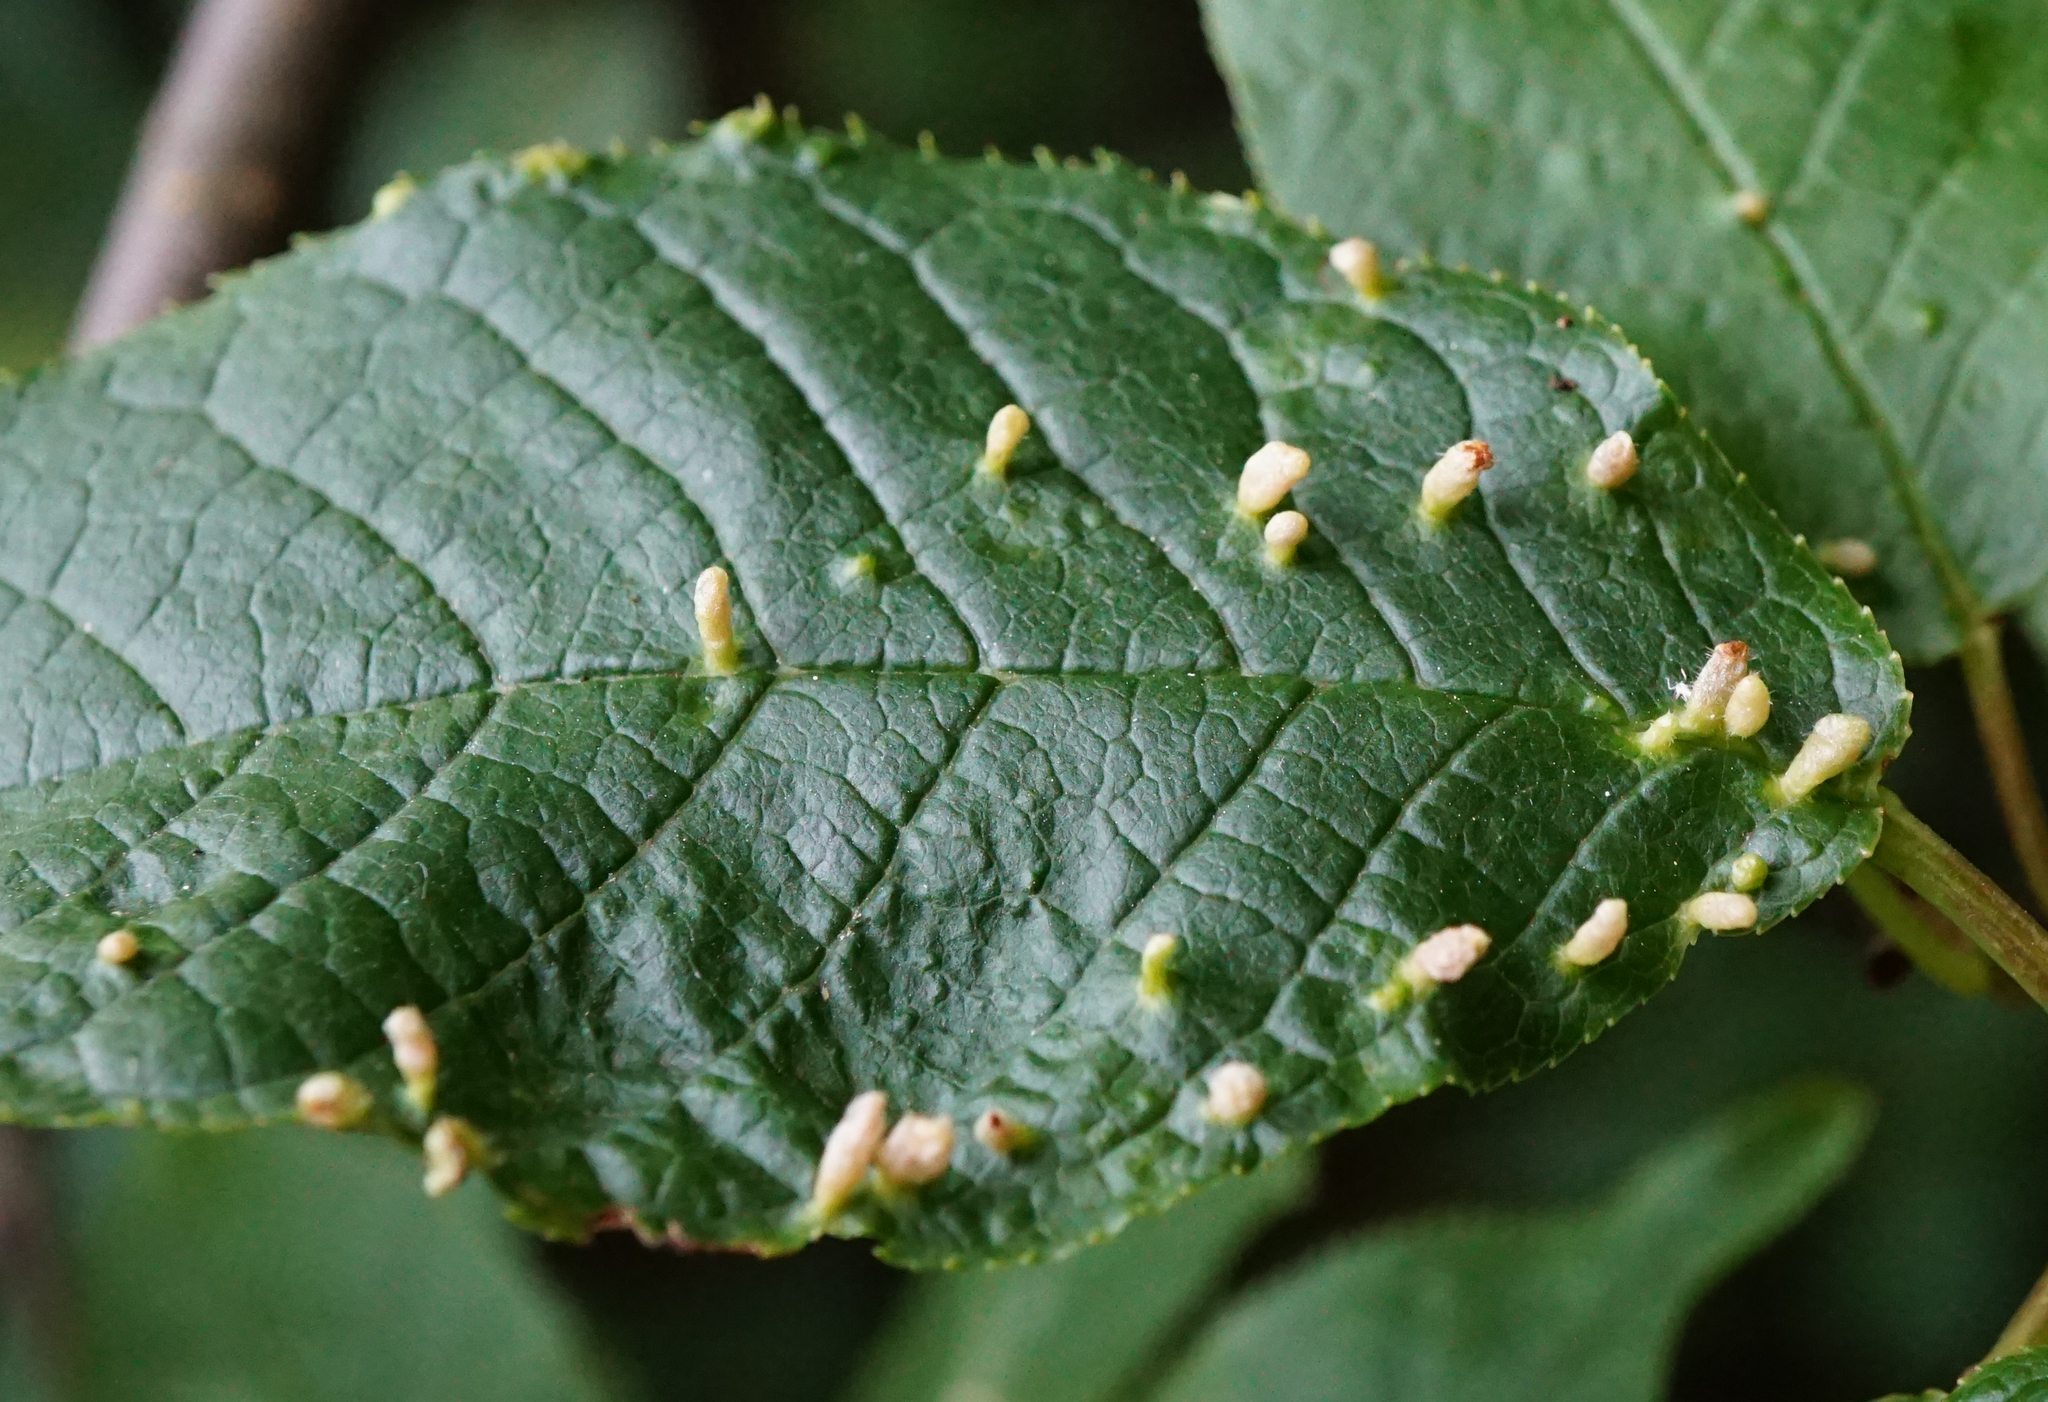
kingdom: Animalia
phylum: Arthropoda
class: Arachnida
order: Trombidiformes
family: Eriophyidae
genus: Phyllocoptes
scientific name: Phyllocoptes eupadi
